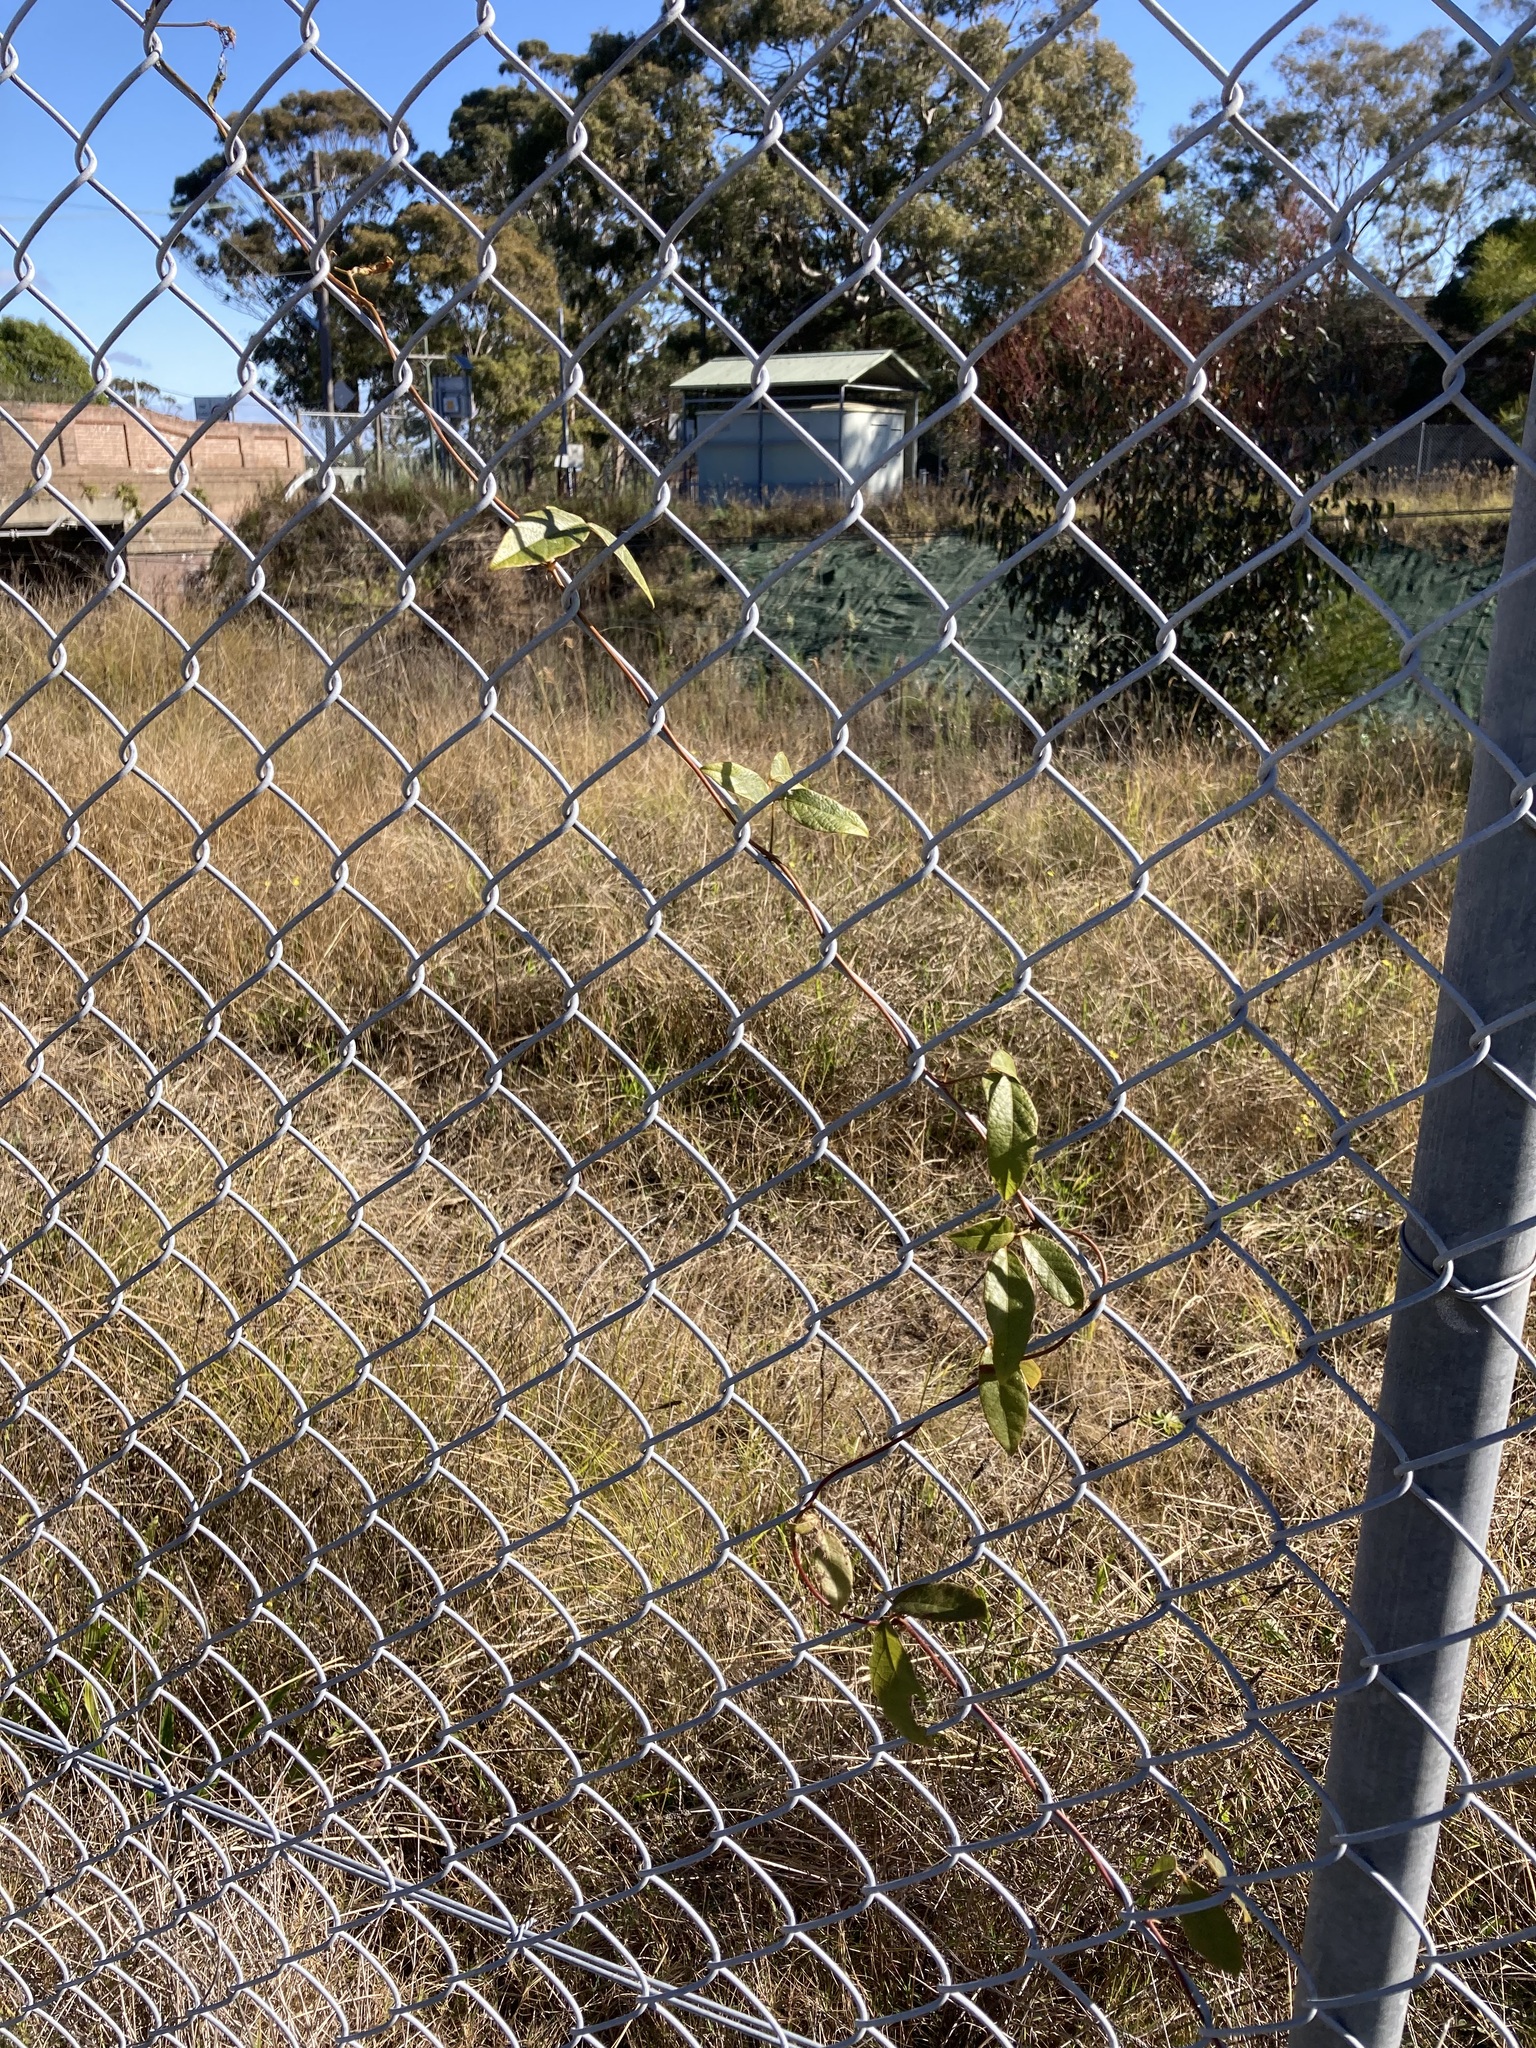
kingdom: Plantae
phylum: Tracheophyta
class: Magnoliopsida
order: Fabales
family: Fabaceae
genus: Kennedia
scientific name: Kennedia rubicunda
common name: Red kennedy-pea
